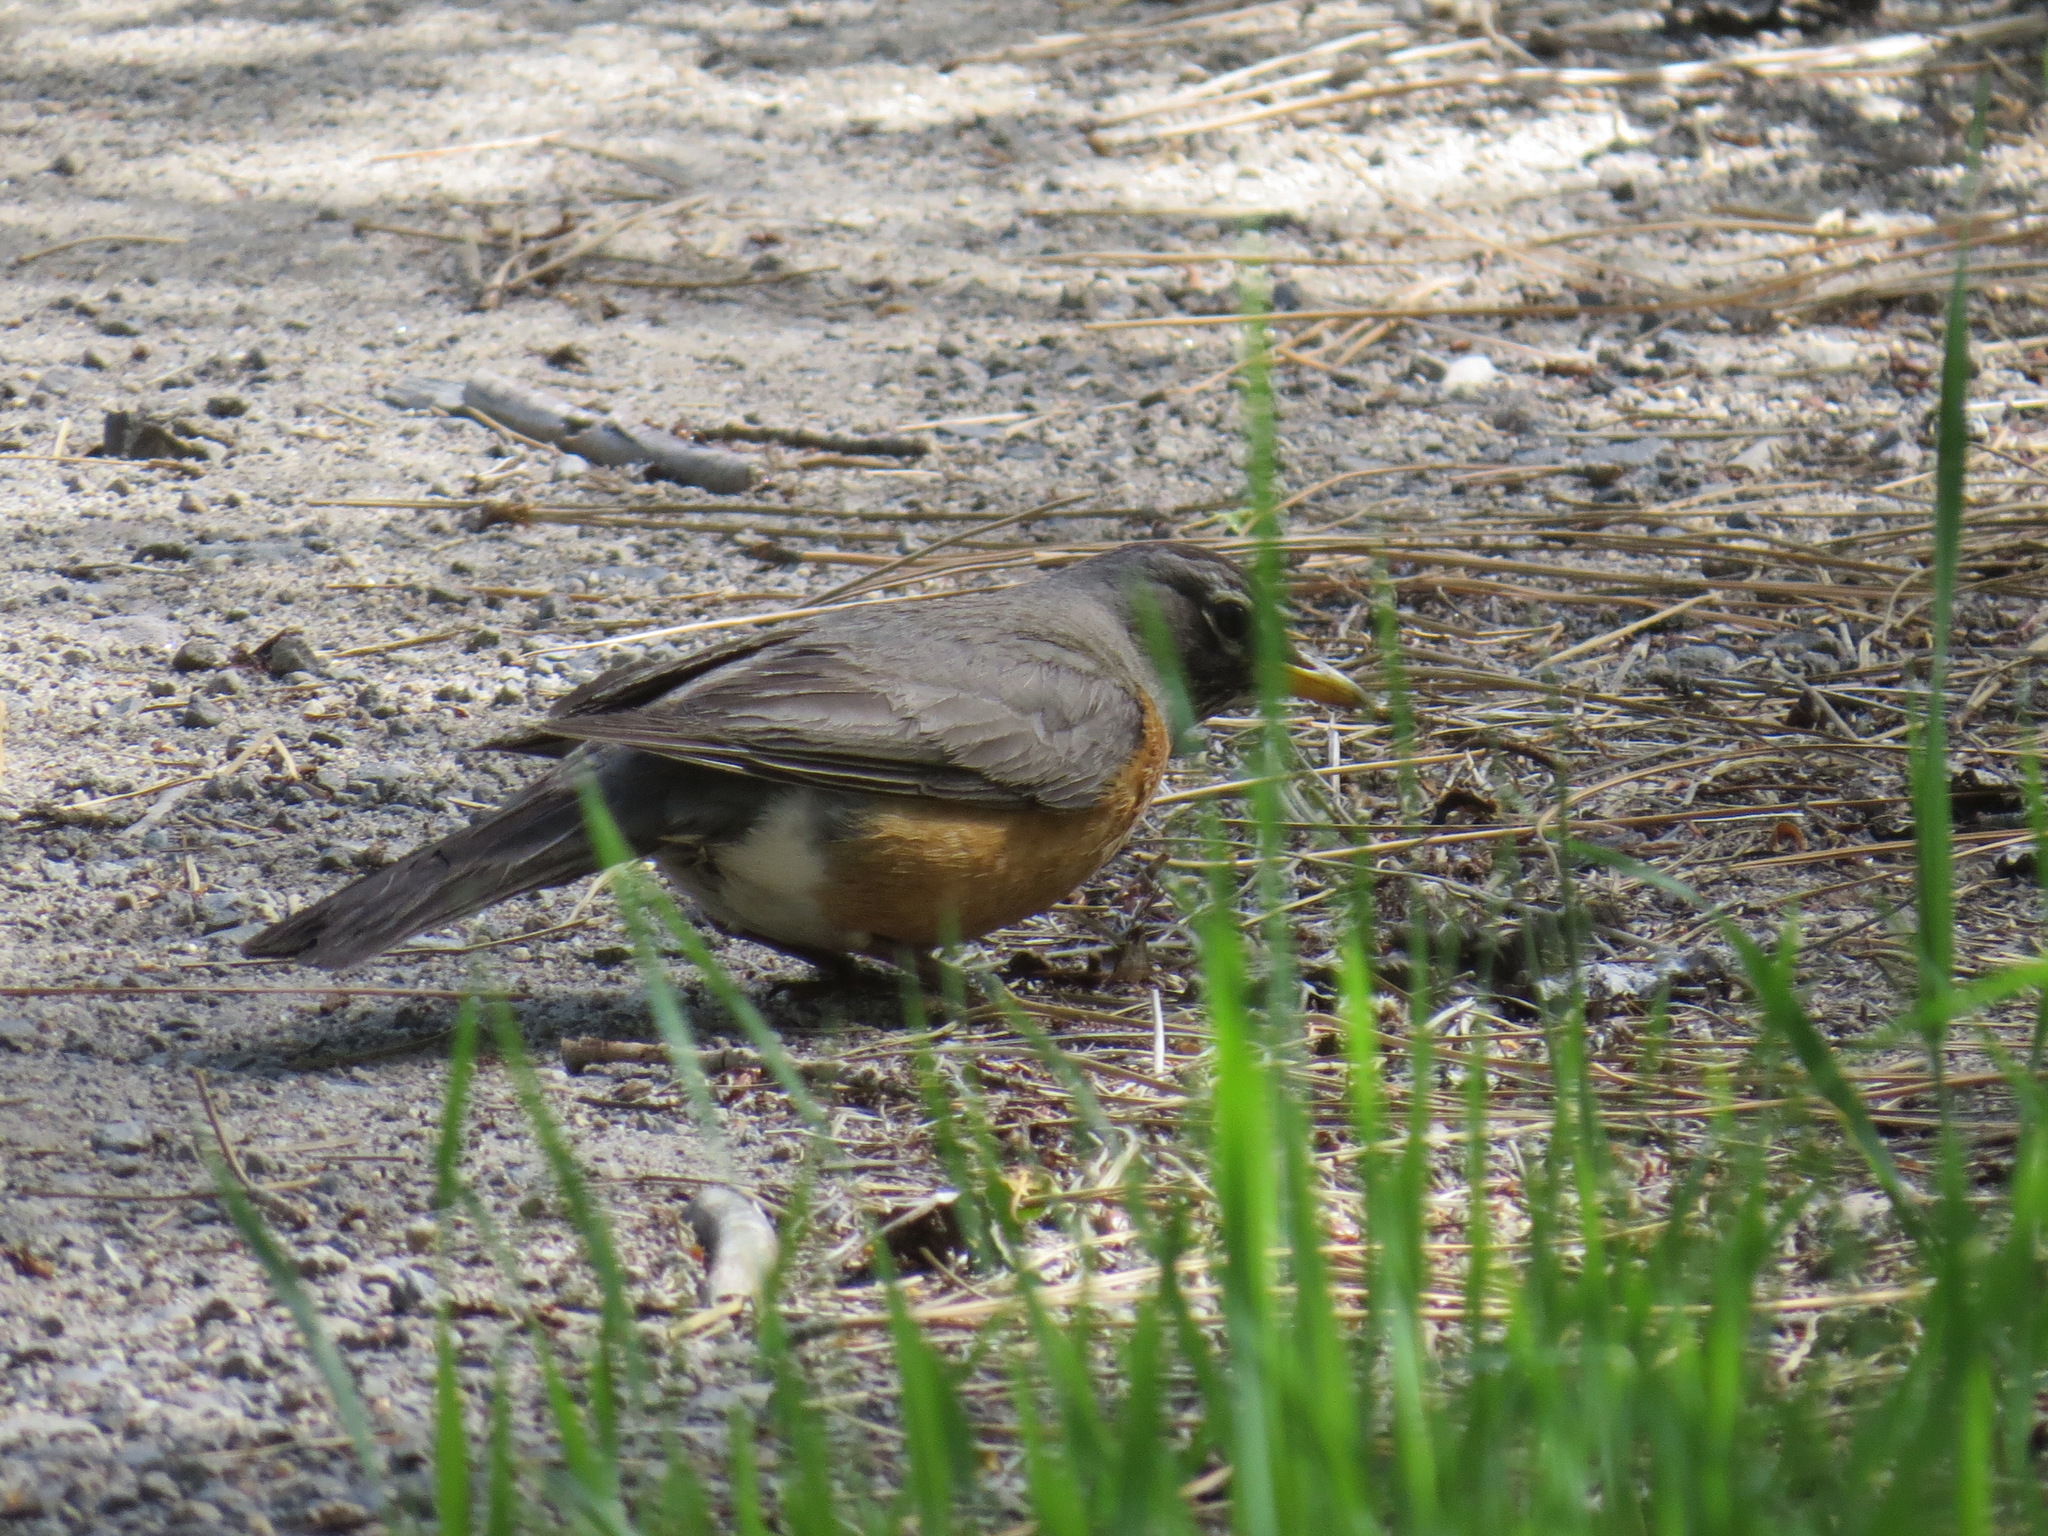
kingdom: Animalia
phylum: Chordata
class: Aves
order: Passeriformes
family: Turdidae
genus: Turdus
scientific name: Turdus migratorius
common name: American robin
